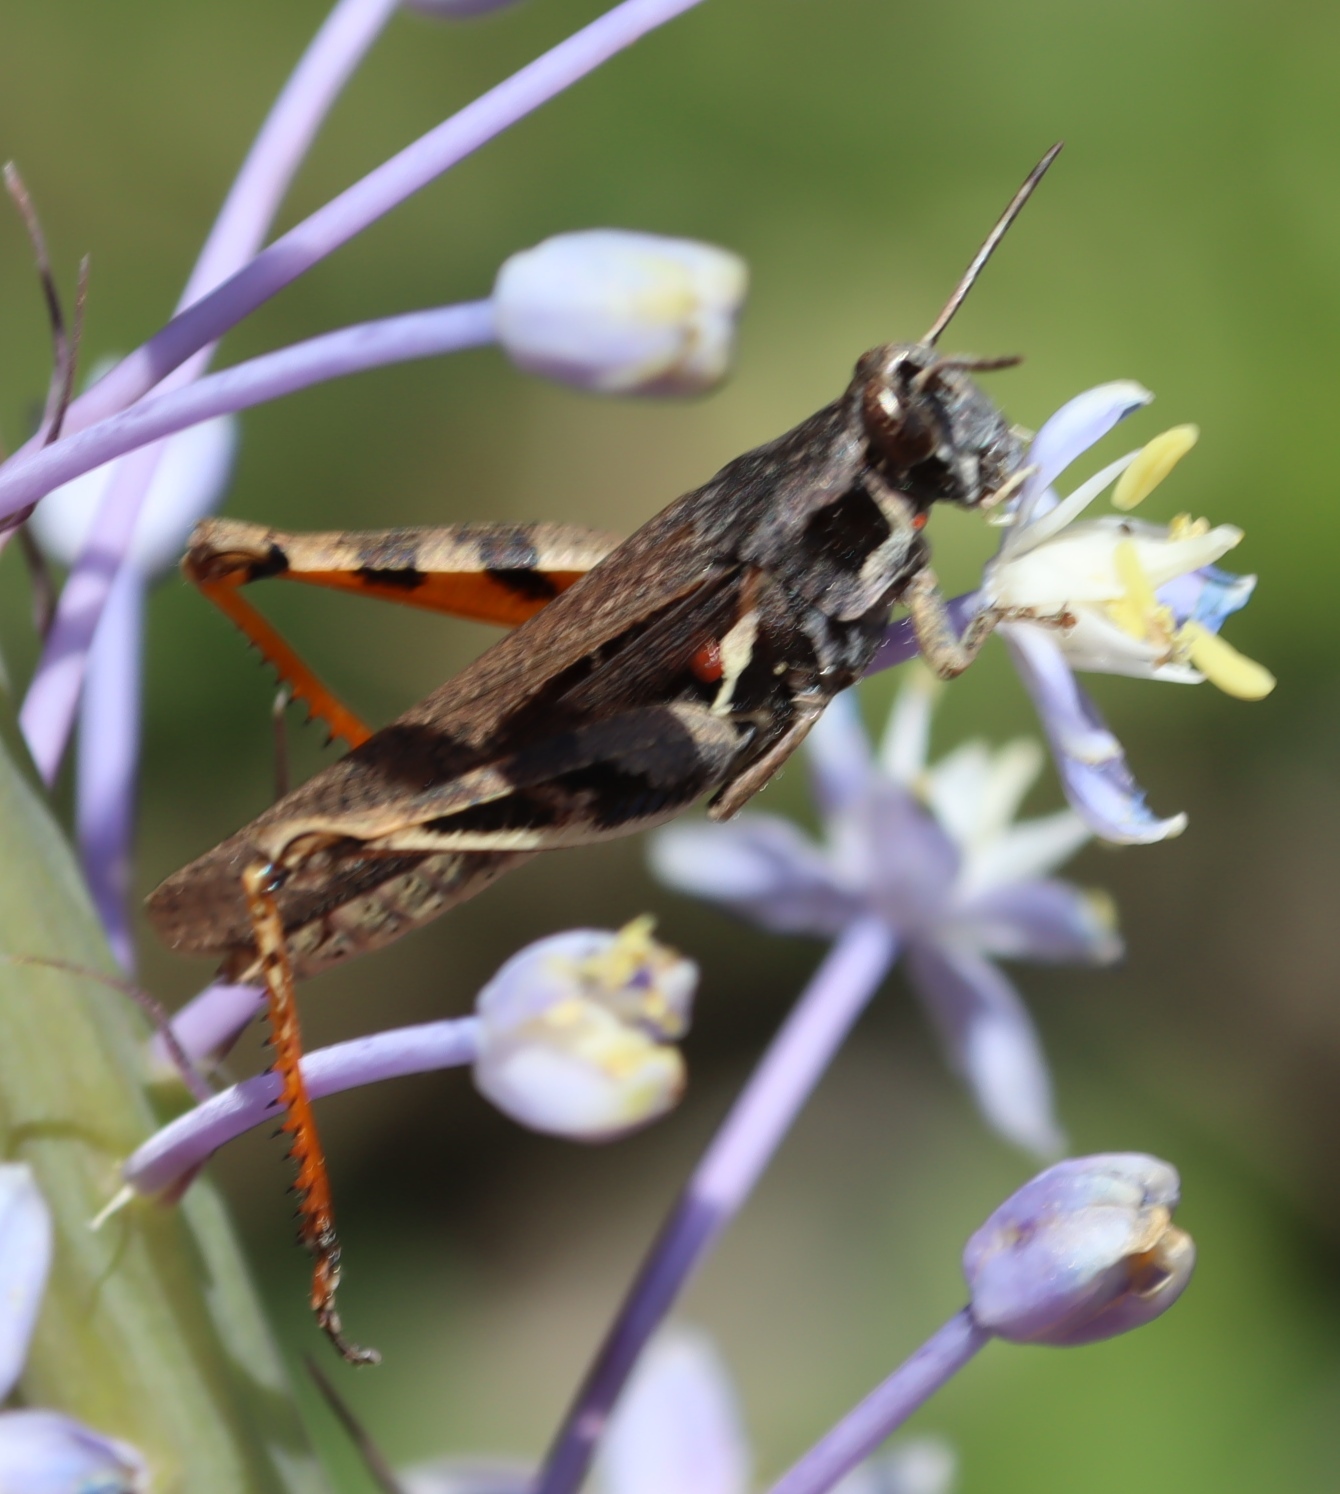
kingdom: Plantae
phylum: Tracheophyta
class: Liliopsida
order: Asparagales
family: Asparagaceae
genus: Merwilla
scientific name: Merwilla plumbea
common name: Blue-squill
